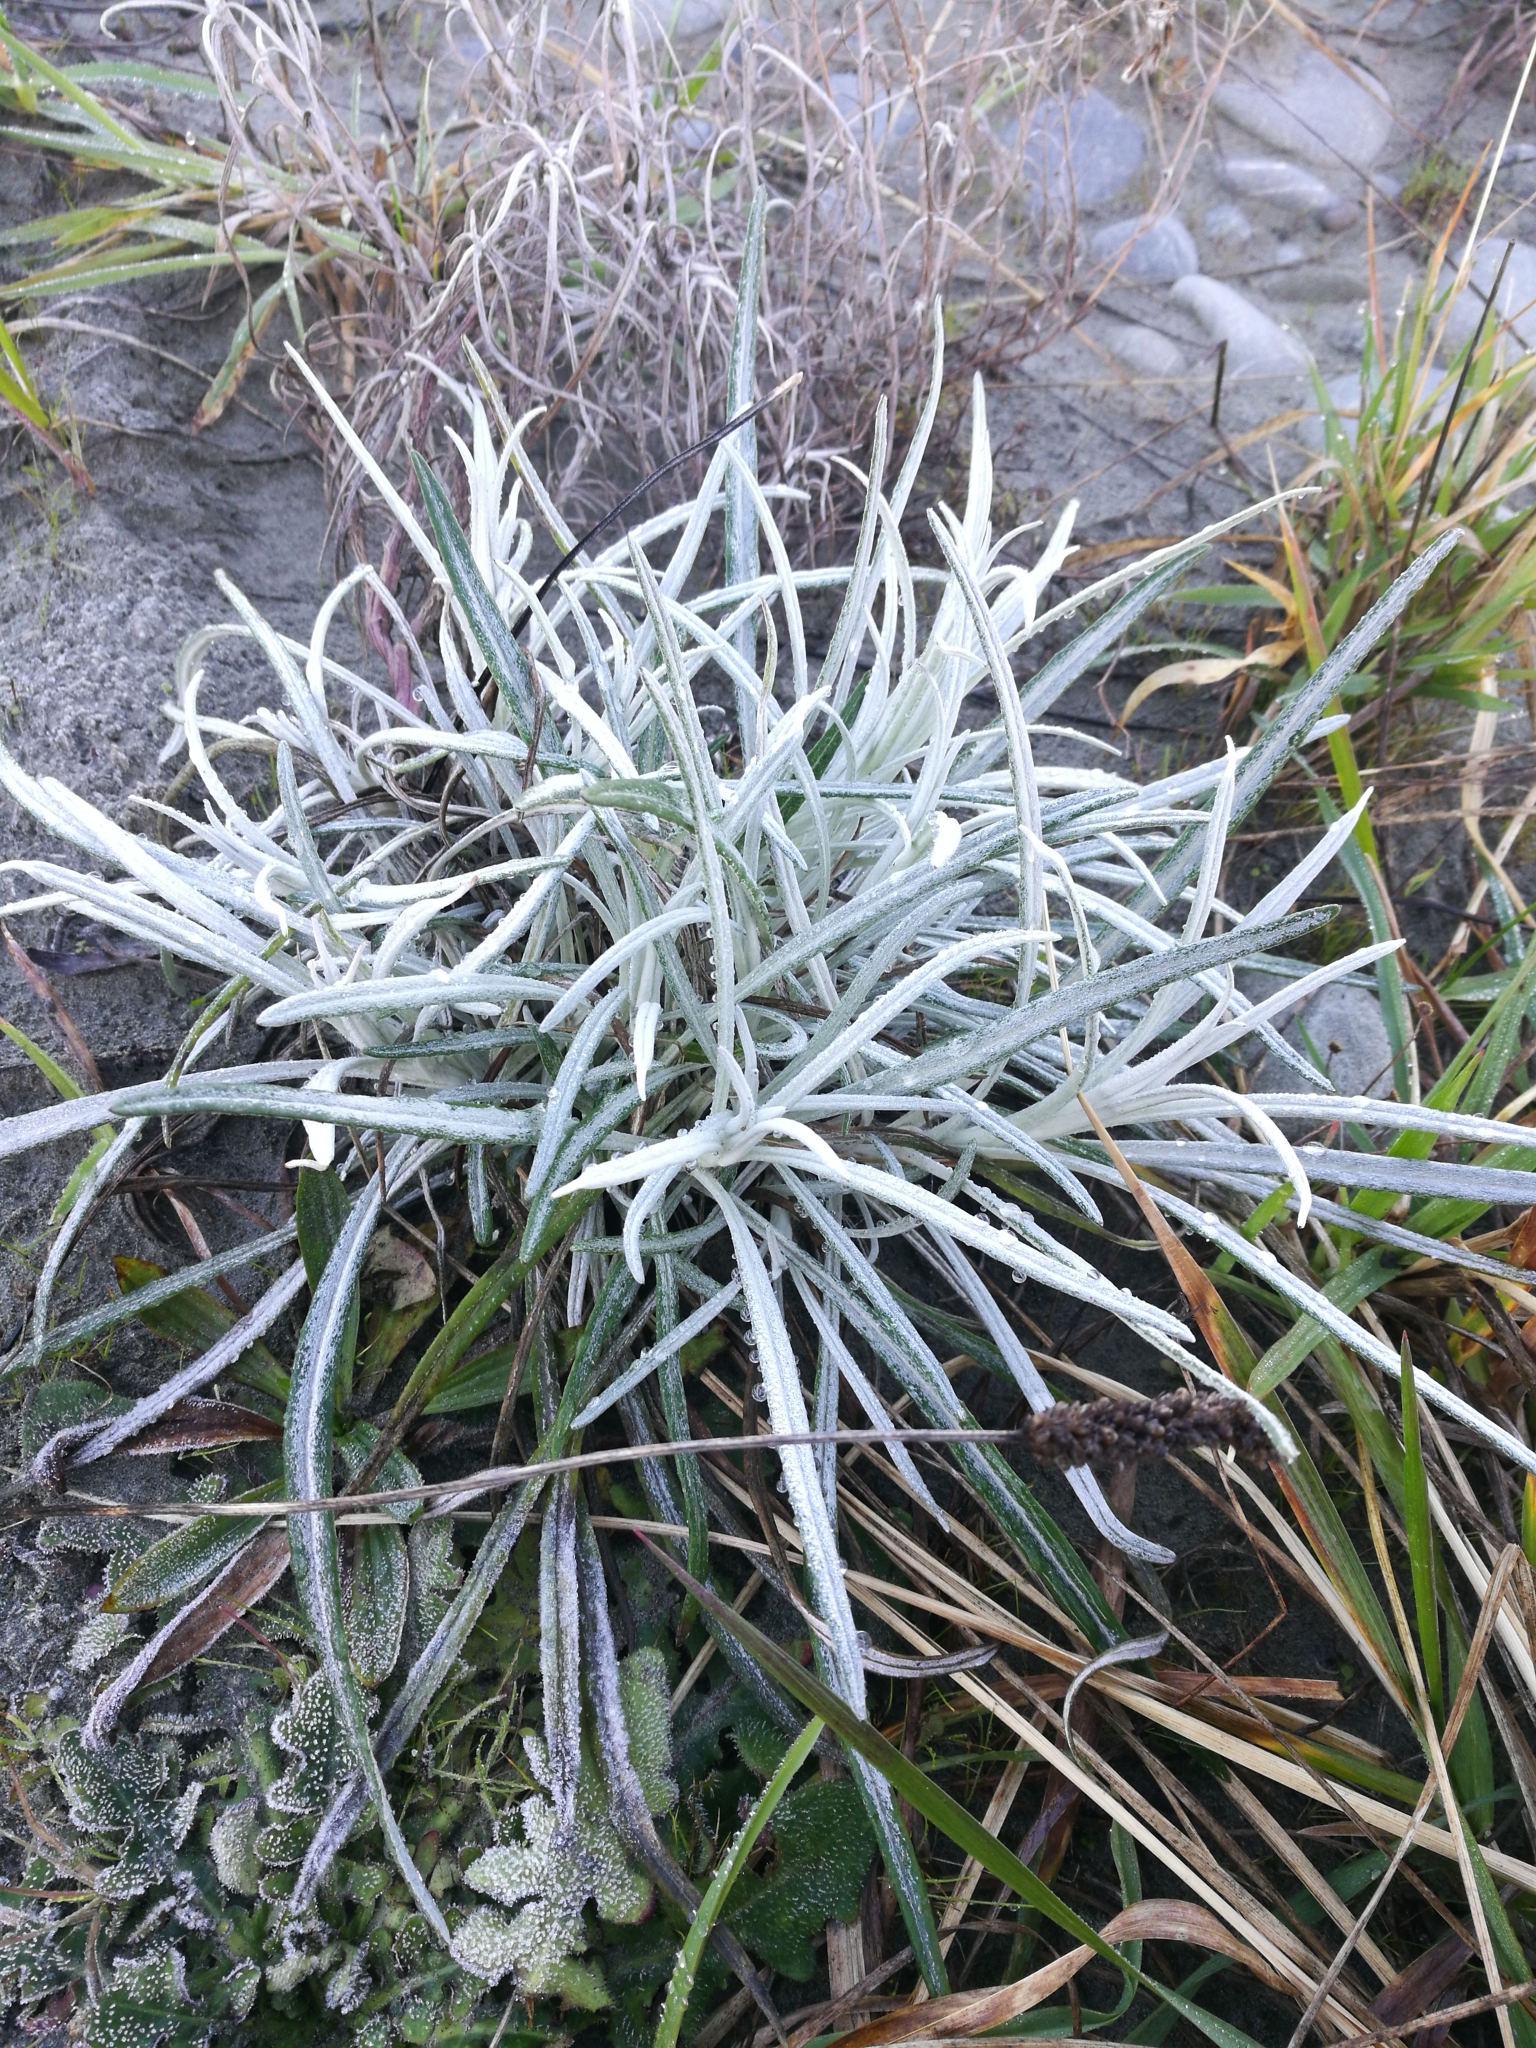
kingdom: Plantae
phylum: Tracheophyta
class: Magnoliopsida
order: Asterales
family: Asteraceae
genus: Senecio
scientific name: Senecio quadridentatus
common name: Cotton fireweed
